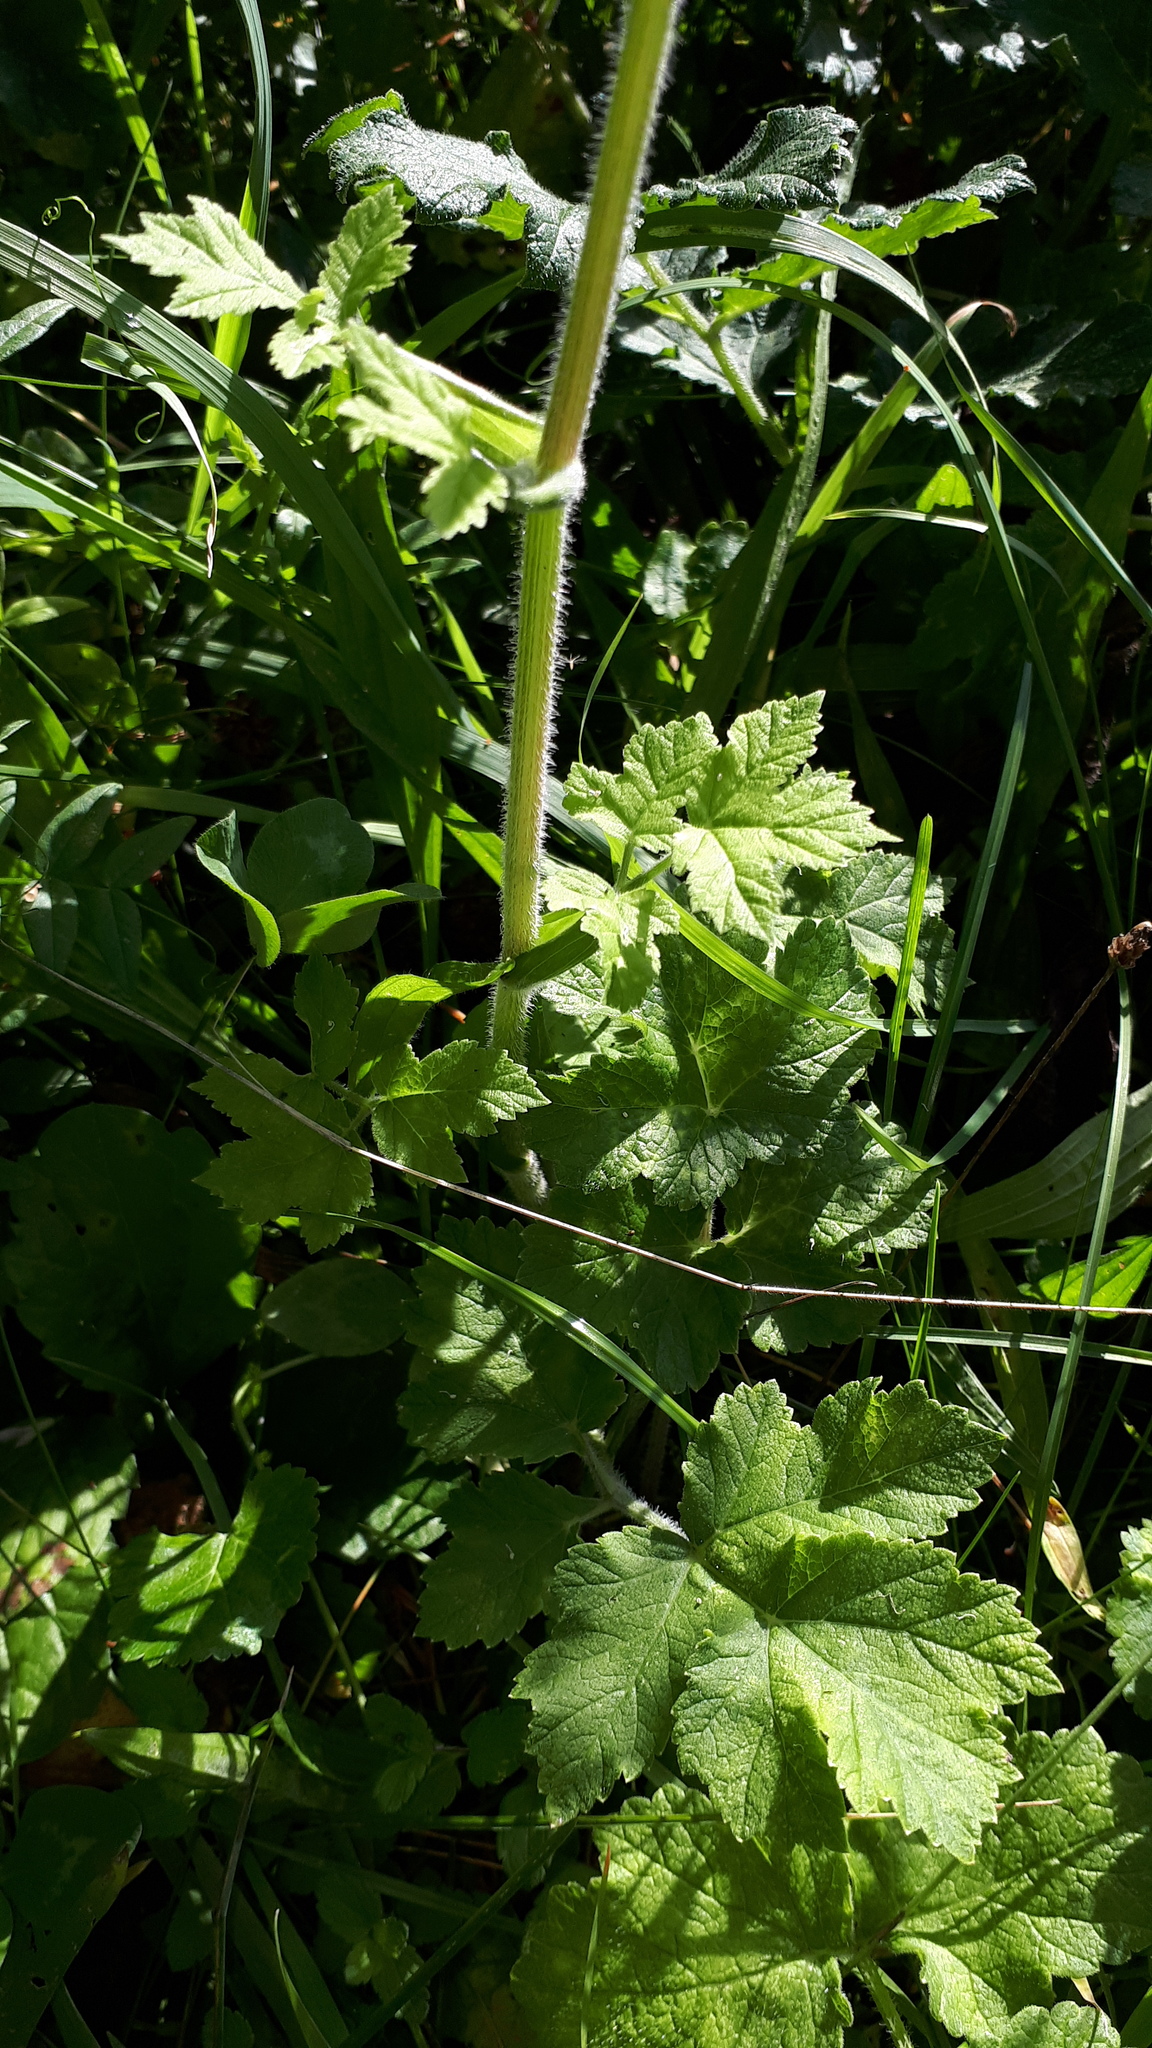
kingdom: Plantae
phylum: Tracheophyta
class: Magnoliopsida
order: Apiales
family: Apiaceae
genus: Heracleum
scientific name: Heracleum sphondylium
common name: Hogweed
